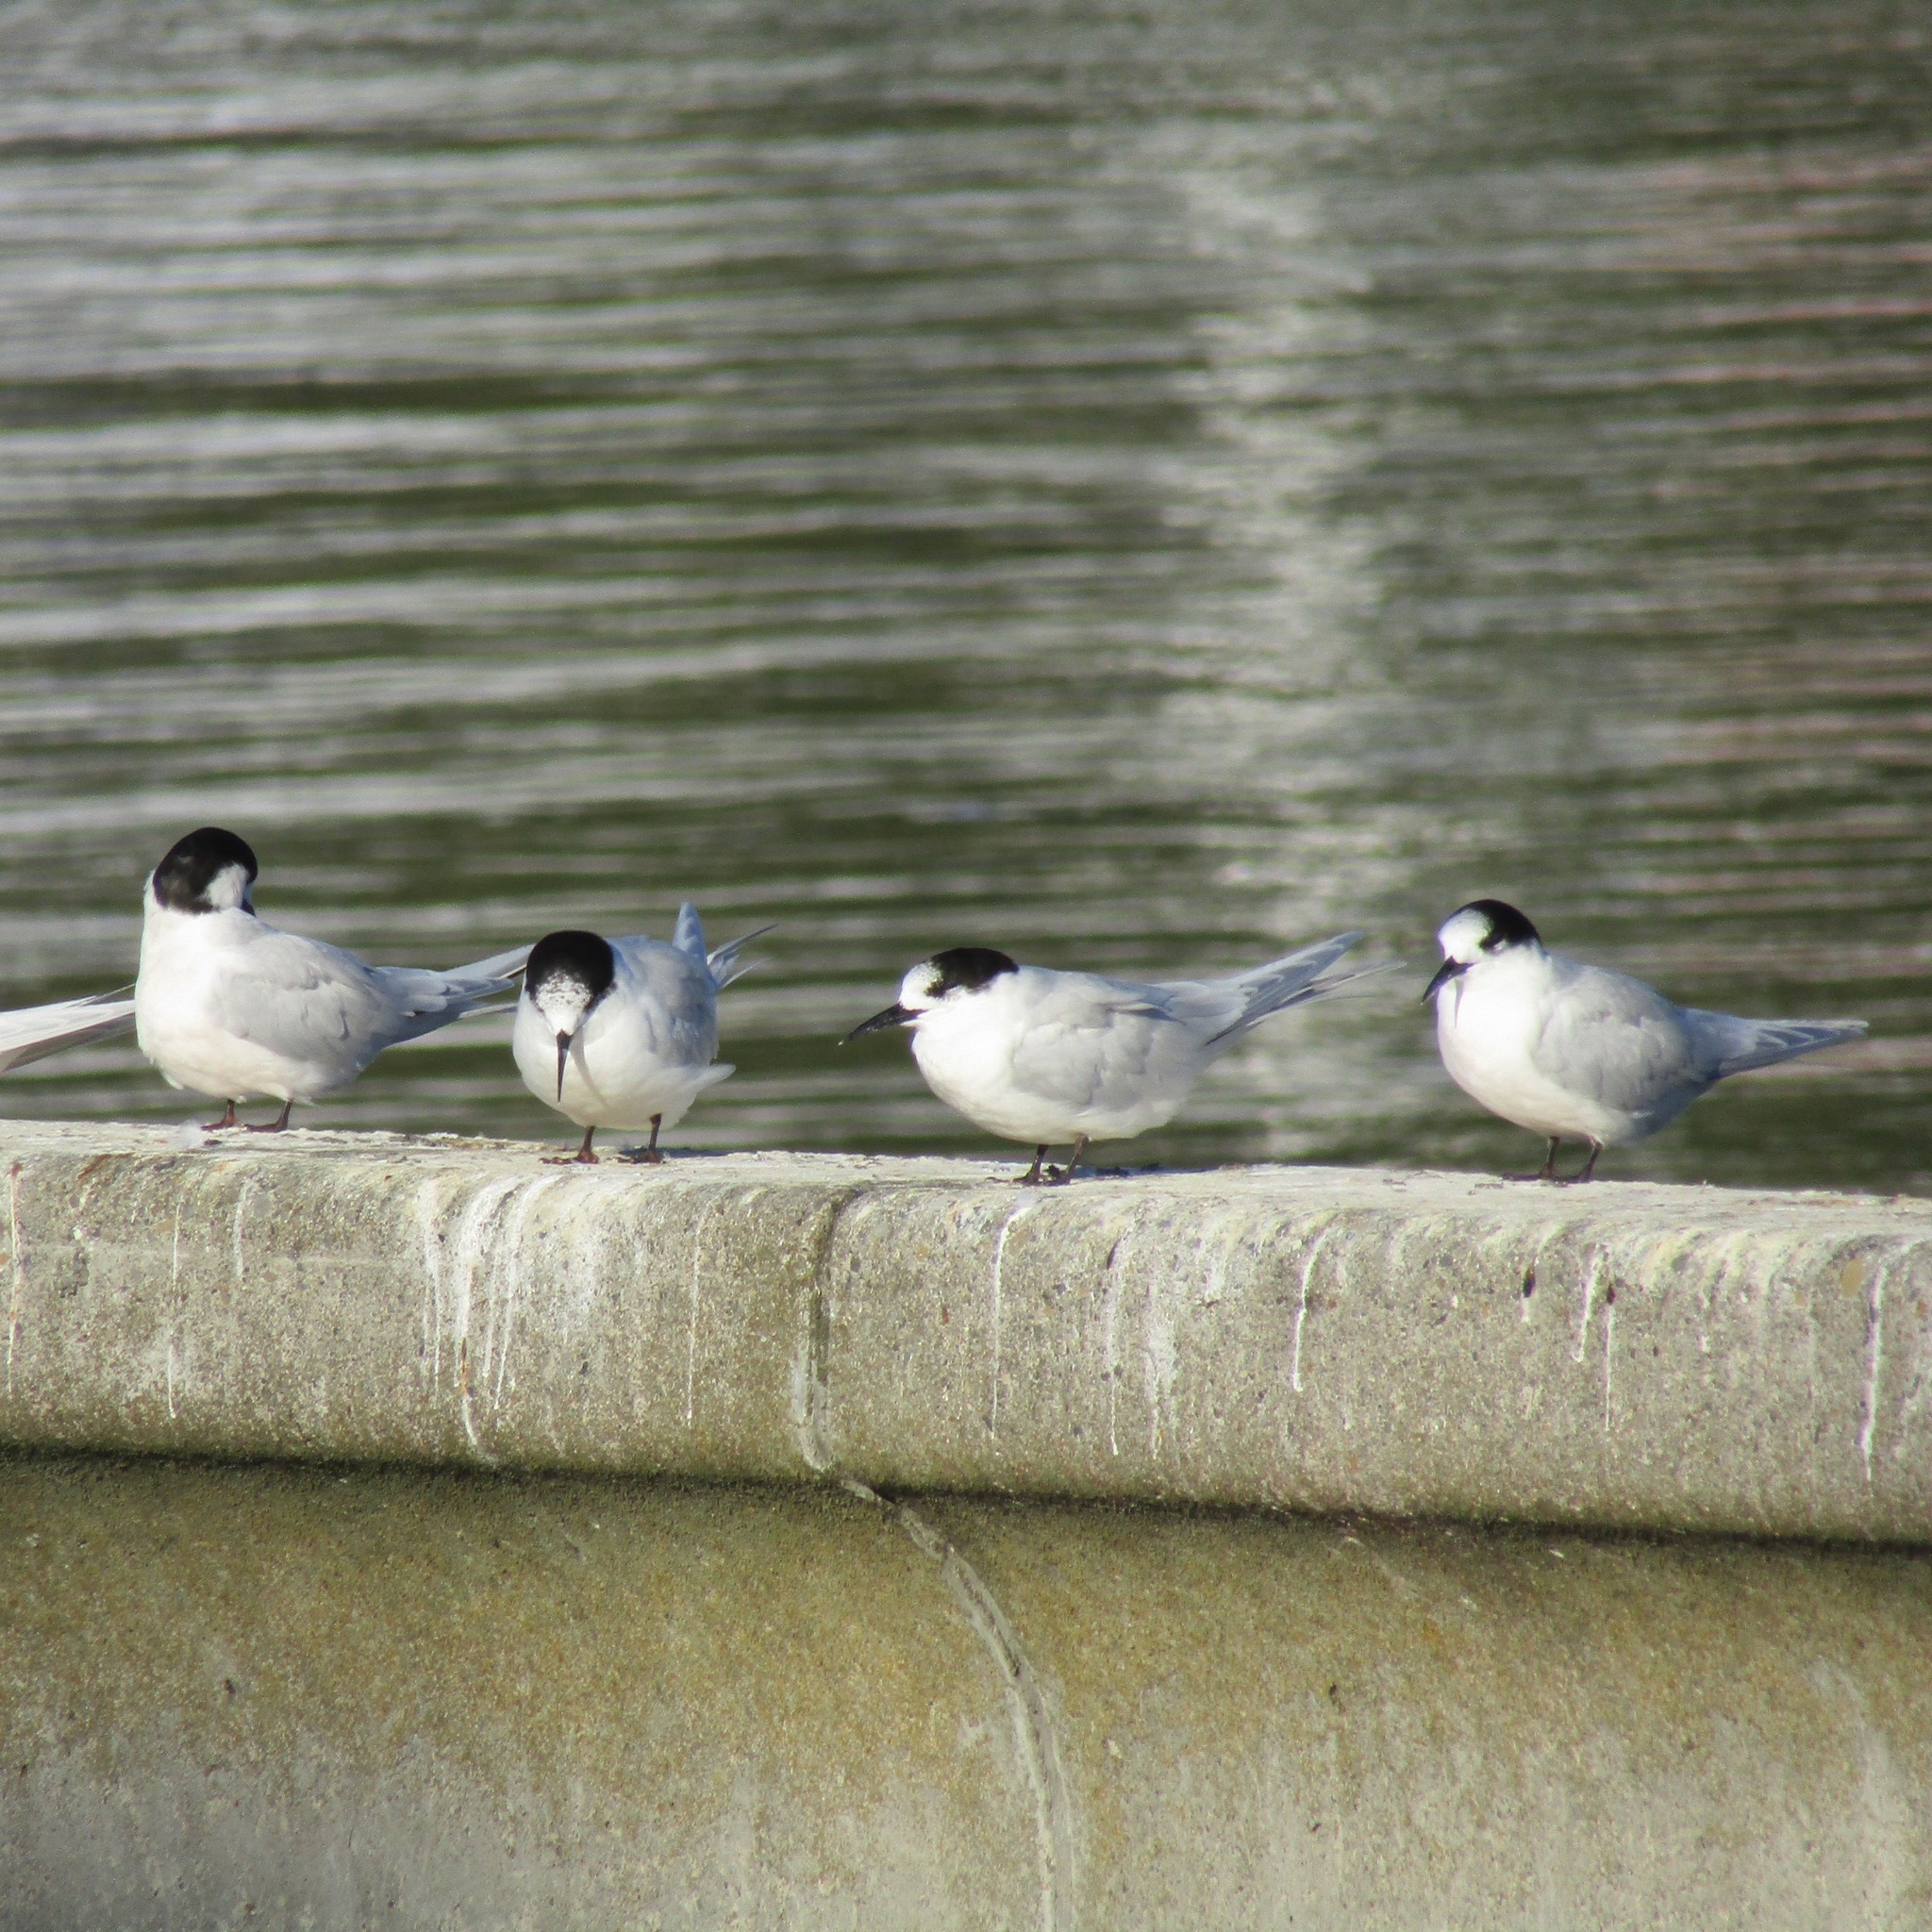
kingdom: Animalia
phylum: Chordata
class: Aves
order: Charadriiformes
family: Laridae
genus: Sterna
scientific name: Sterna striata
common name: White-fronted tern
